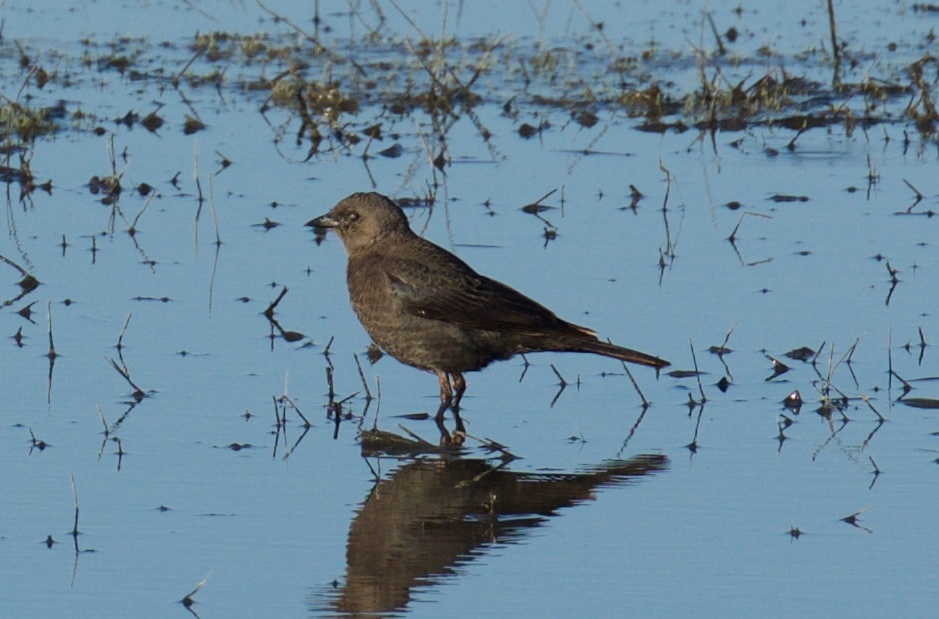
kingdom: Animalia
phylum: Chordata
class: Aves
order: Passeriformes
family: Icteridae
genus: Molothrus
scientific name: Molothrus ater
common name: Brown-headed cowbird
